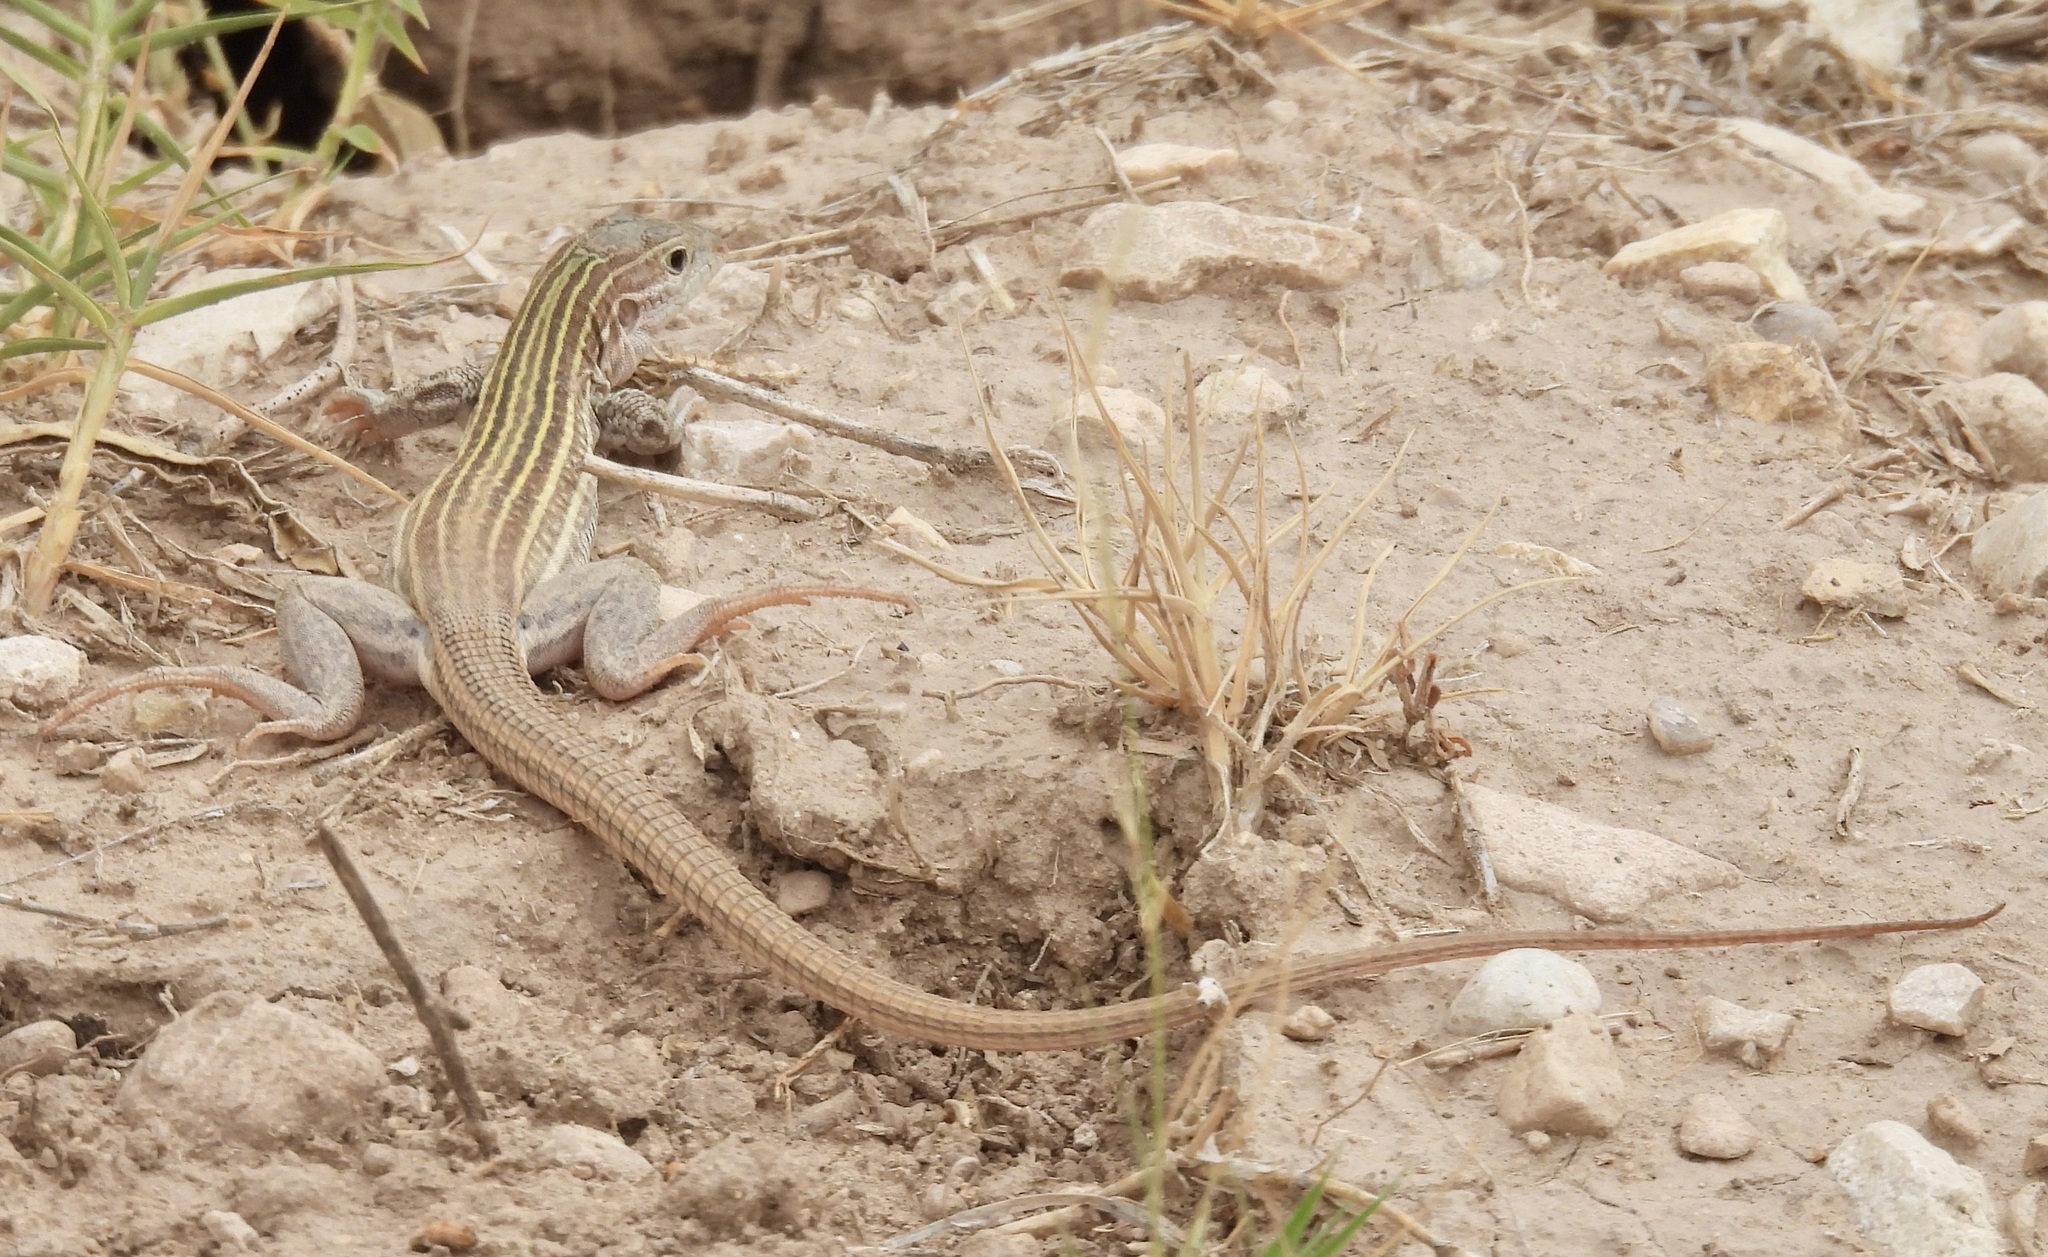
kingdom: Animalia
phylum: Chordata
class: Squamata
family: Teiidae
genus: Aspidoscelis
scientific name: Aspidoscelis gularis
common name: Eastern spotted whiptail
